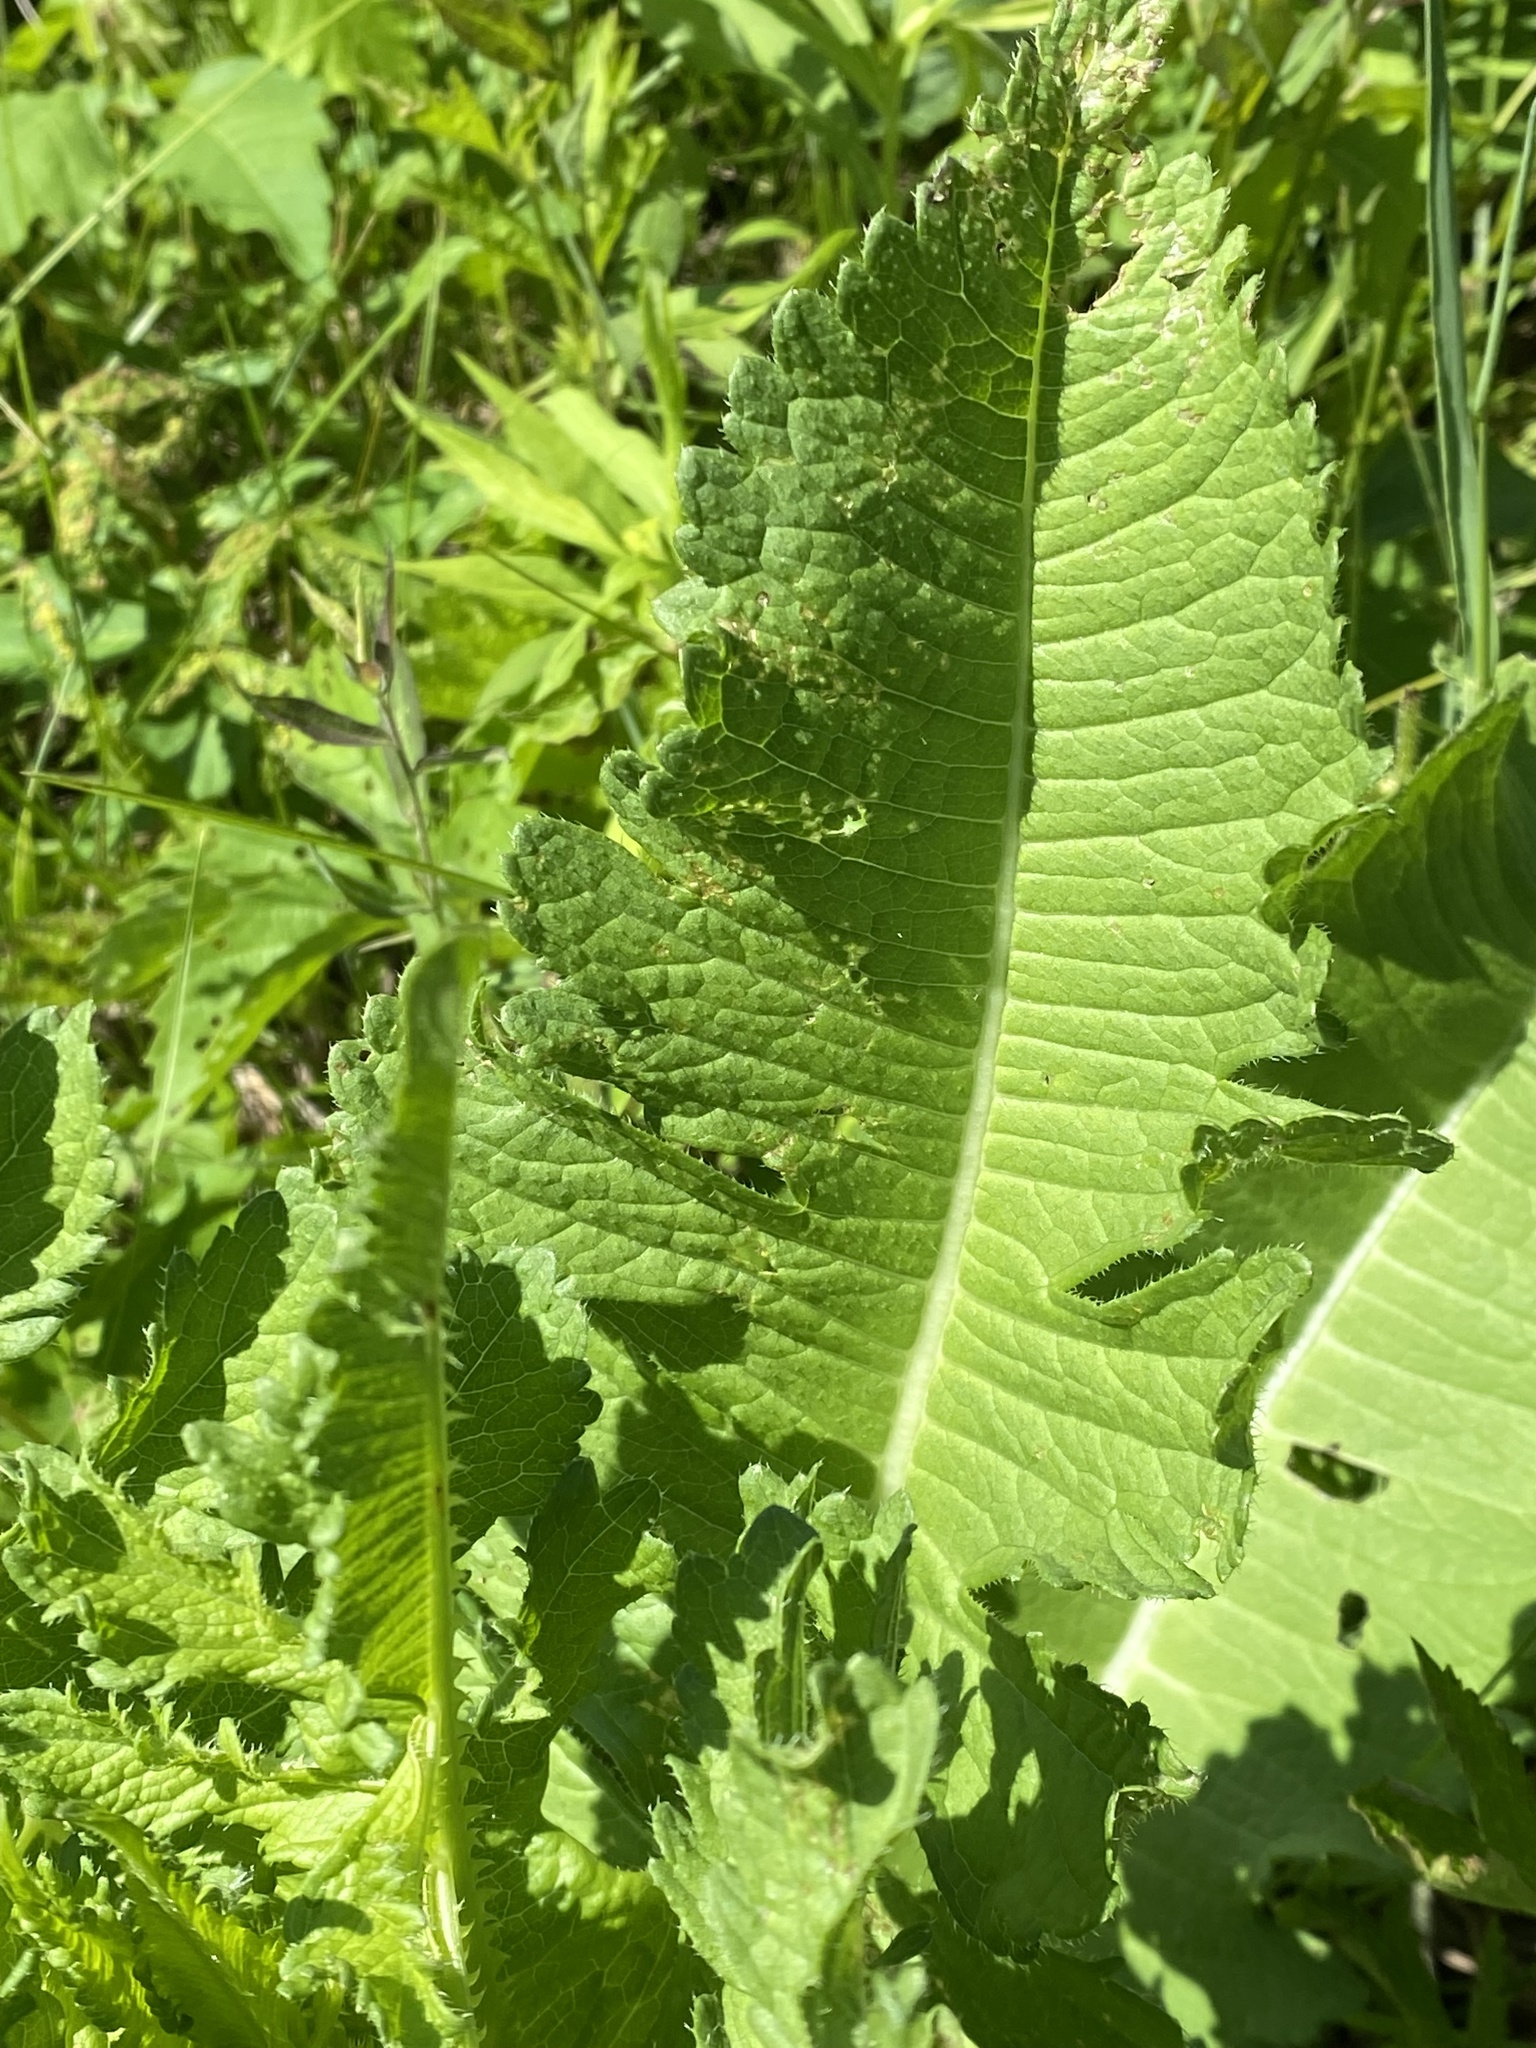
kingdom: Plantae
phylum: Tracheophyta
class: Magnoliopsida
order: Dipsacales
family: Caprifoliaceae
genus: Dipsacus
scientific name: Dipsacus laciniatus
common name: Cut-leaved teasel
